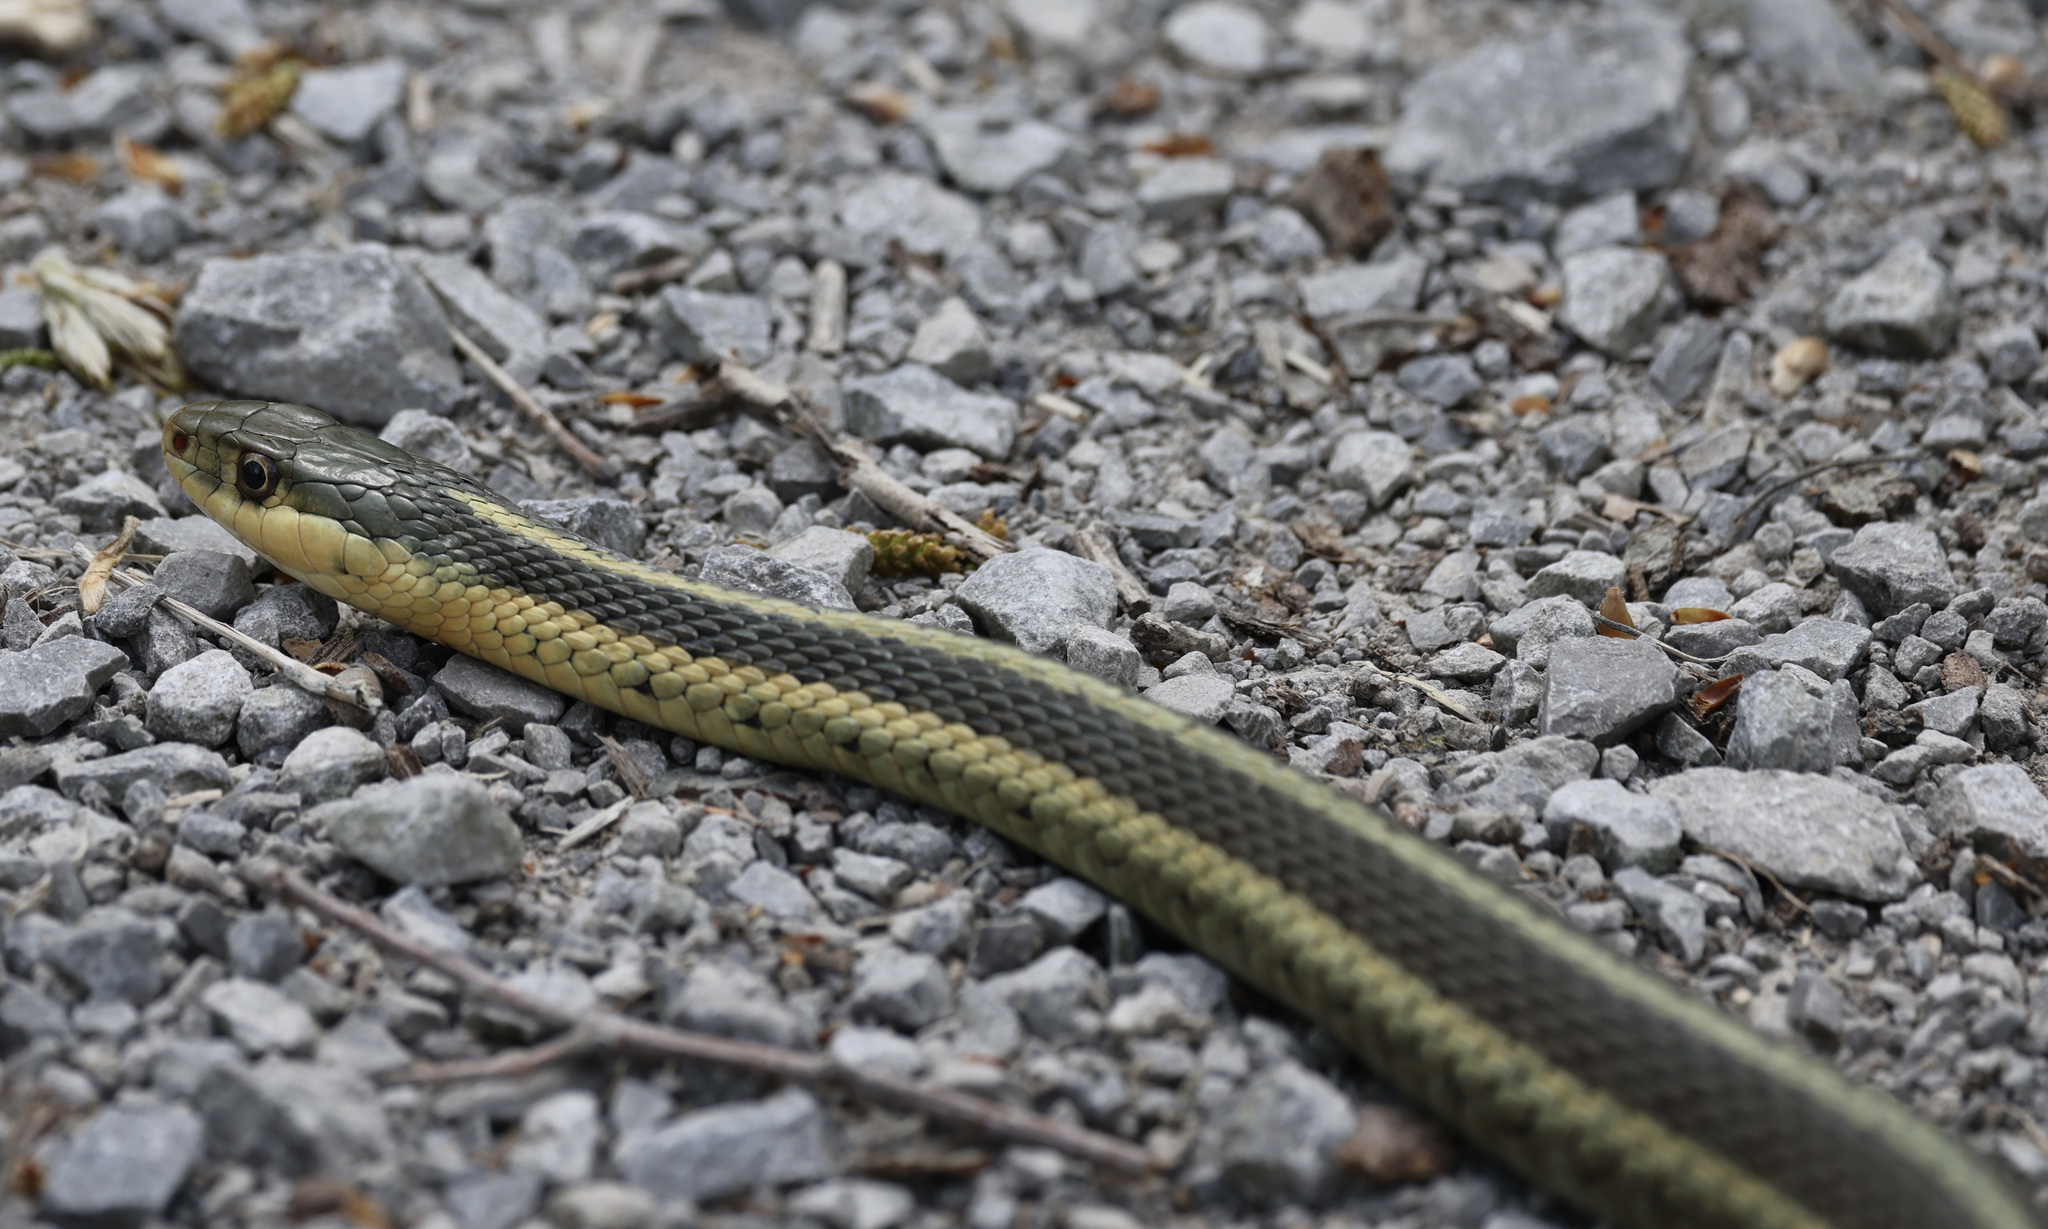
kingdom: Animalia
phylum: Chordata
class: Squamata
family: Colubridae
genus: Thamnophis
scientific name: Thamnophis sirtalis
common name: Common garter snake
